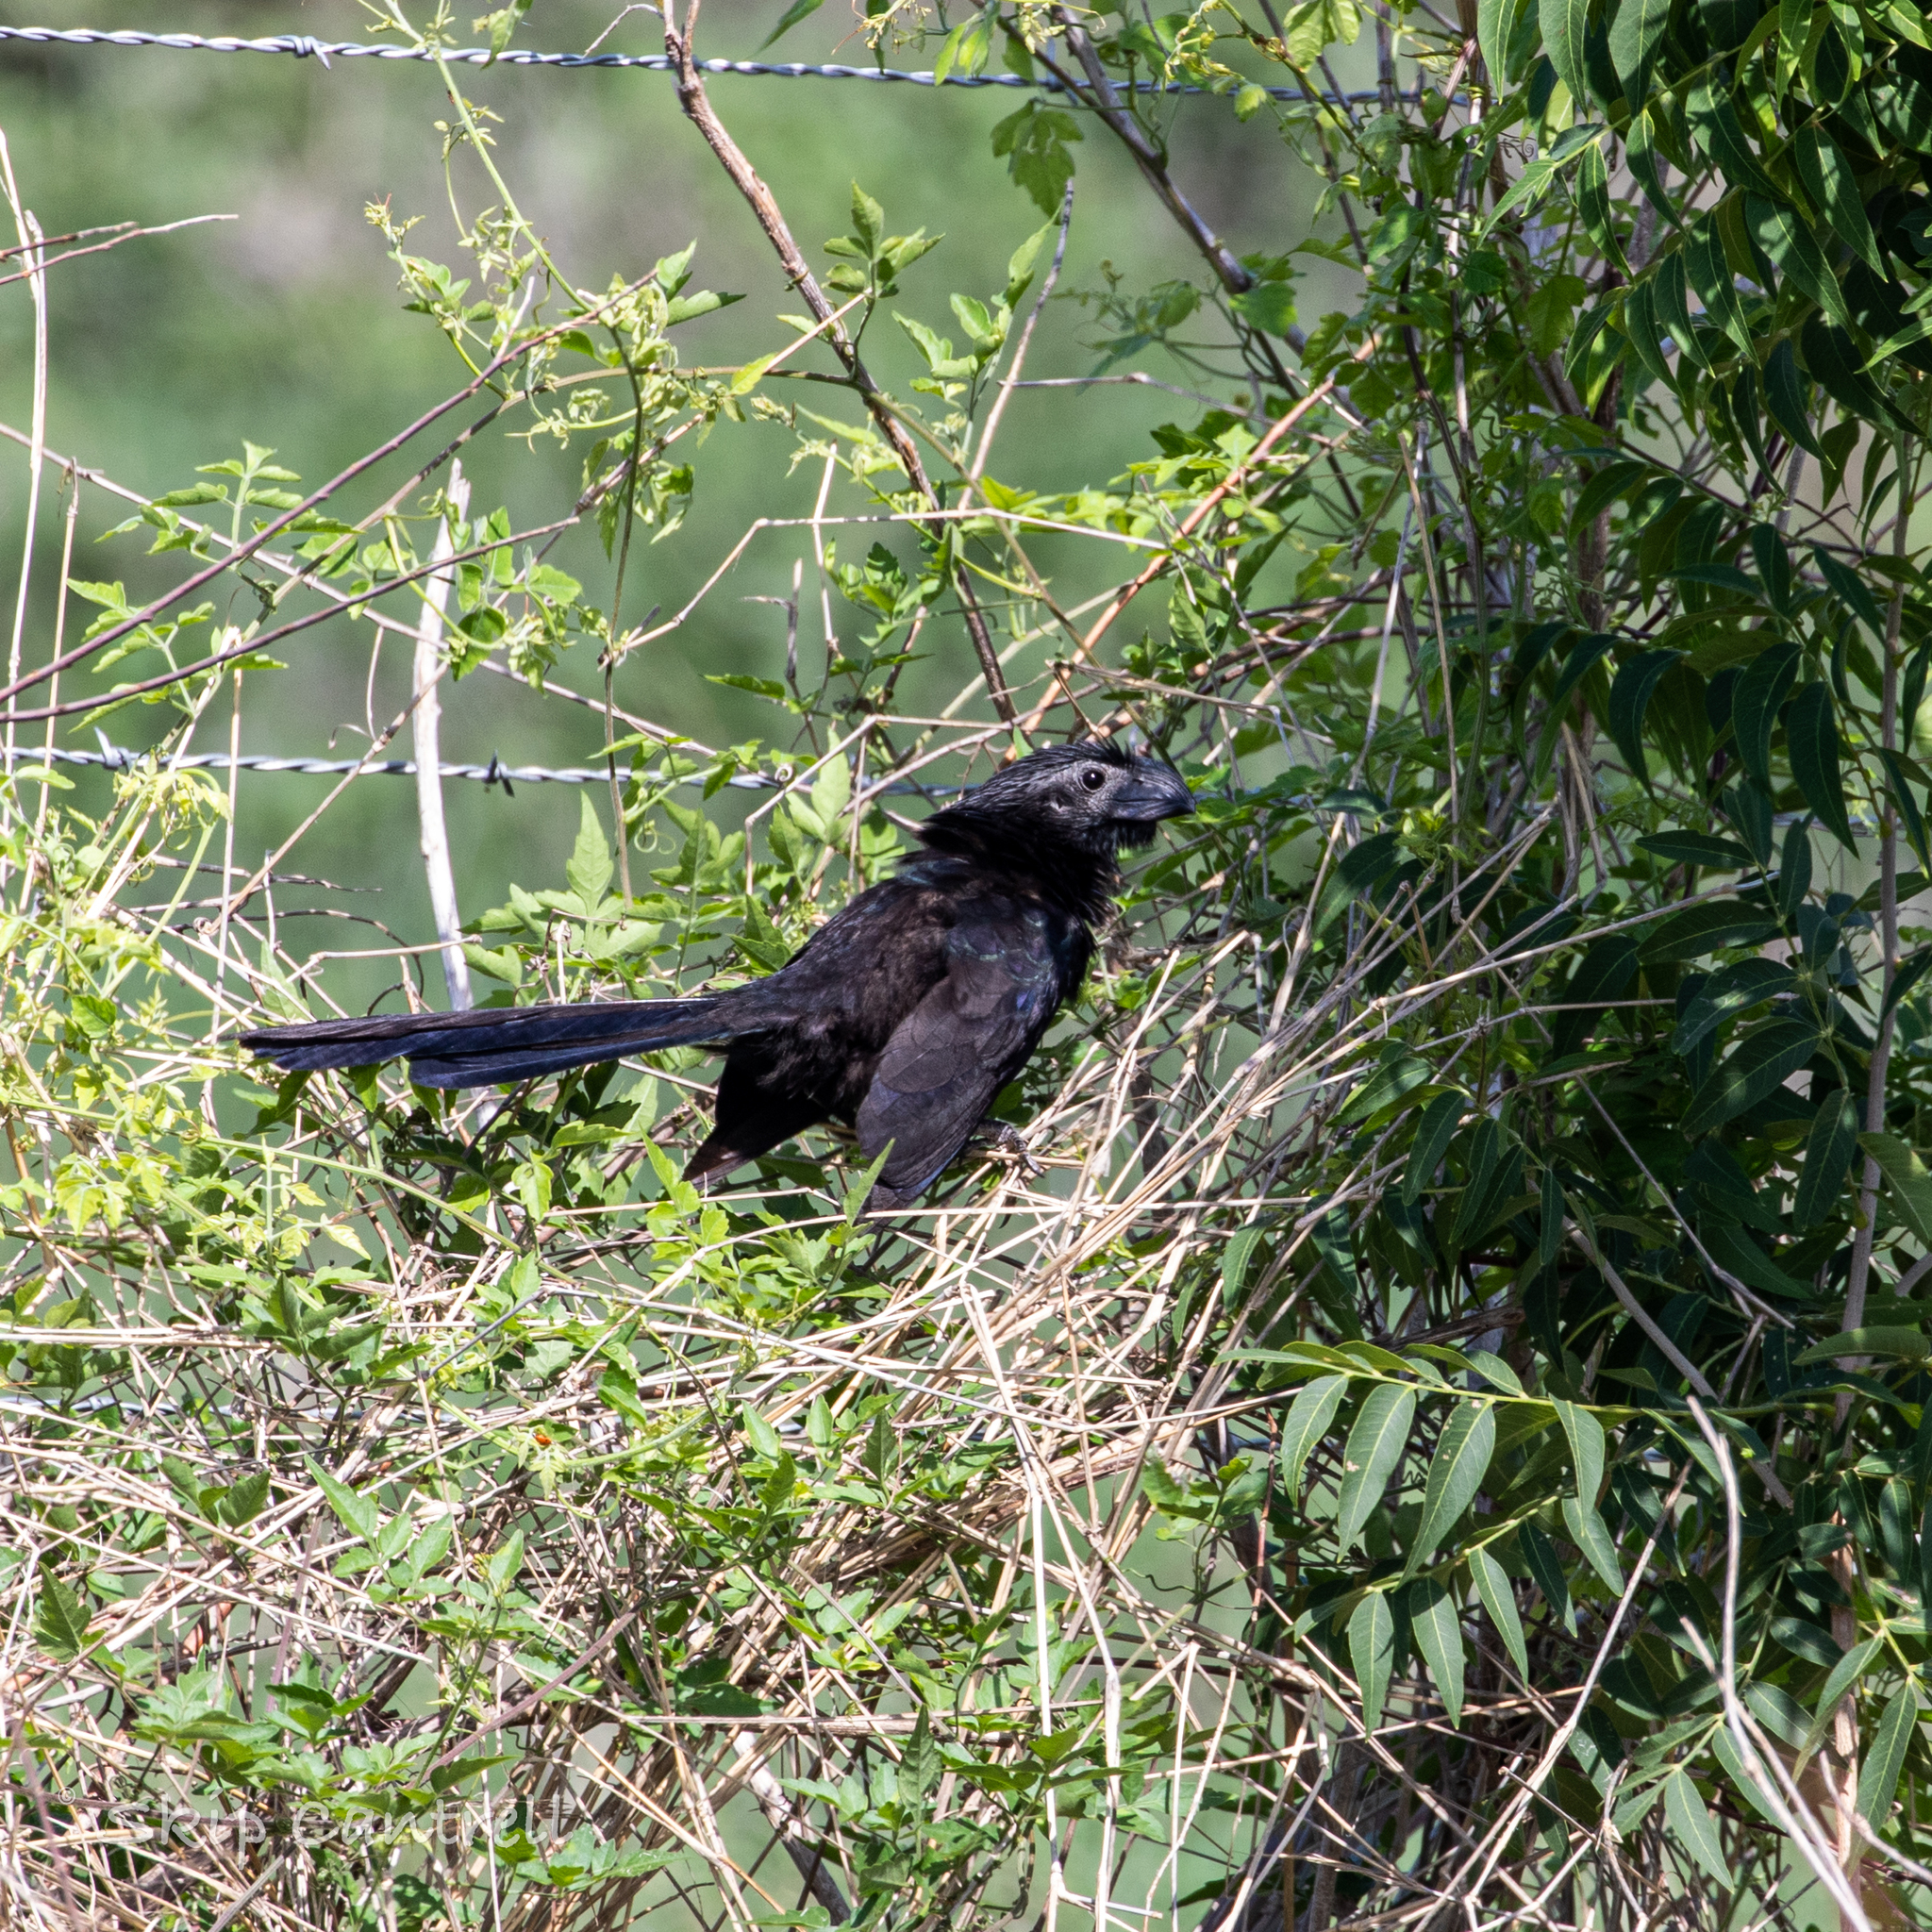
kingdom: Animalia
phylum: Chordata
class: Aves
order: Cuculiformes
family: Cuculidae
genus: Crotophaga
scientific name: Crotophaga sulcirostris
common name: Groove-billed ani
